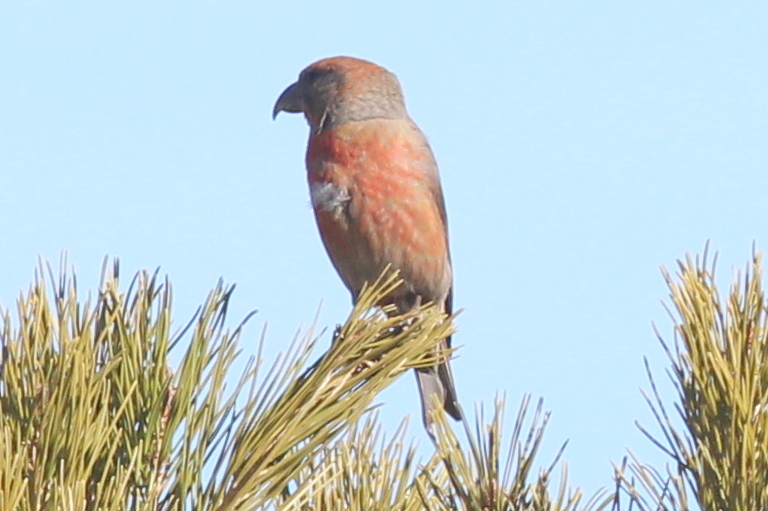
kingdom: Animalia
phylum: Chordata
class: Aves
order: Passeriformes
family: Fringillidae
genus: Loxia
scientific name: Loxia curvirostra
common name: Red crossbill
